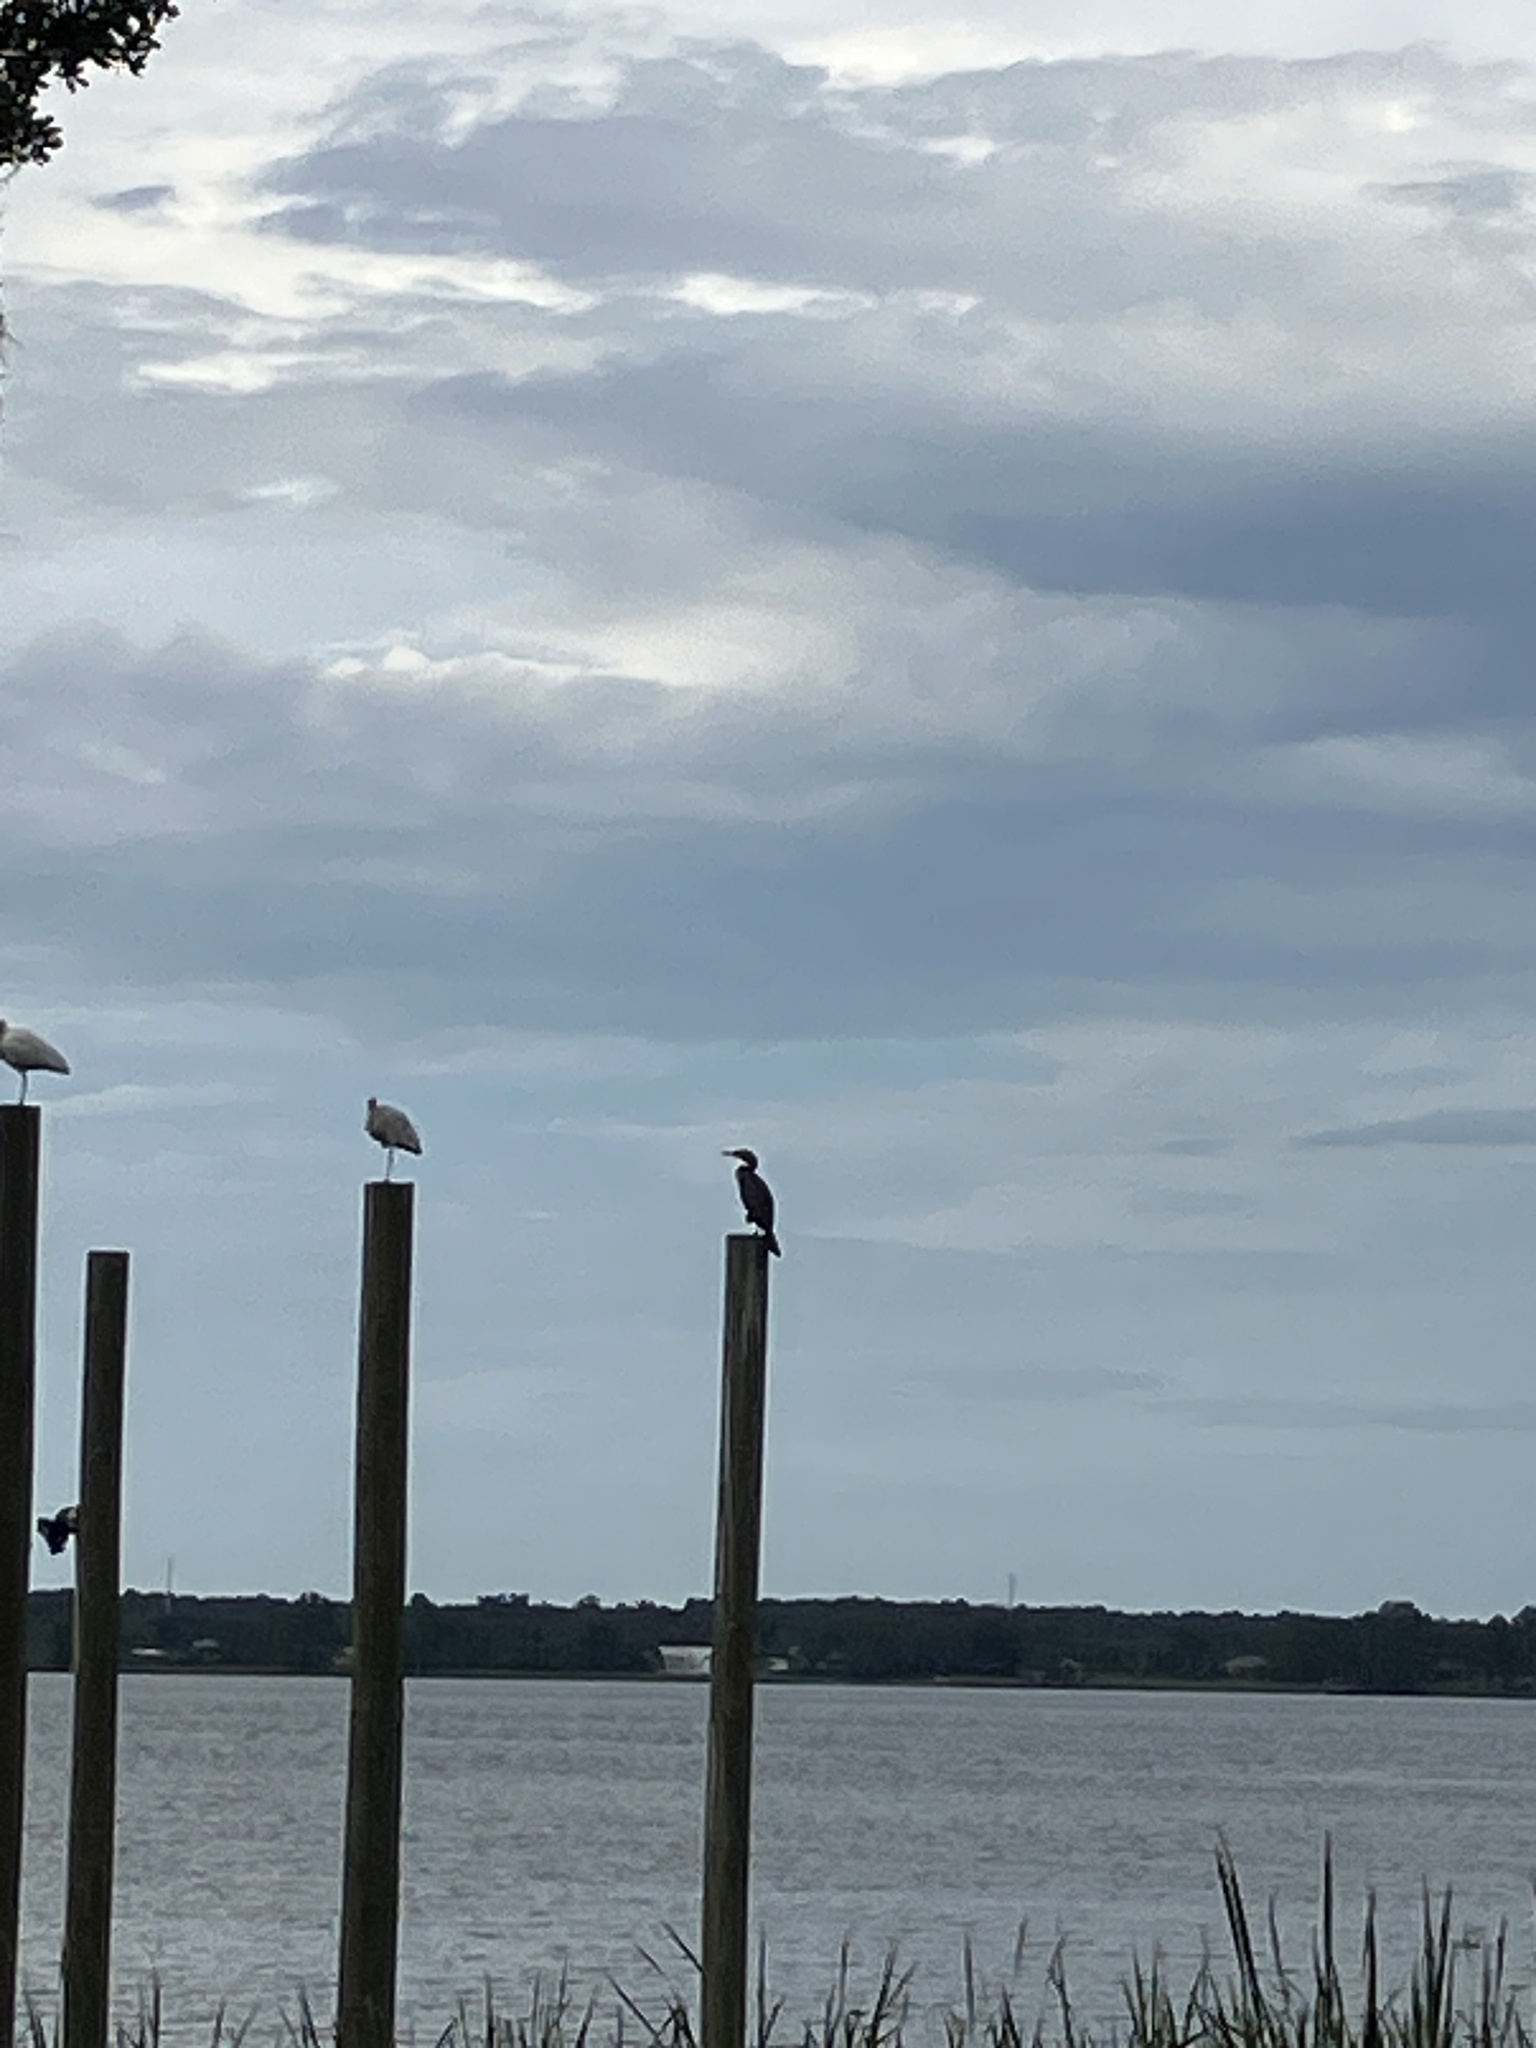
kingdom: Animalia
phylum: Chordata
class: Aves
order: Suliformes
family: Phalacrocoracidae
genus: Phalacrocorax
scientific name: Phalacrocorax auritus
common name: Double-crested cormorant
